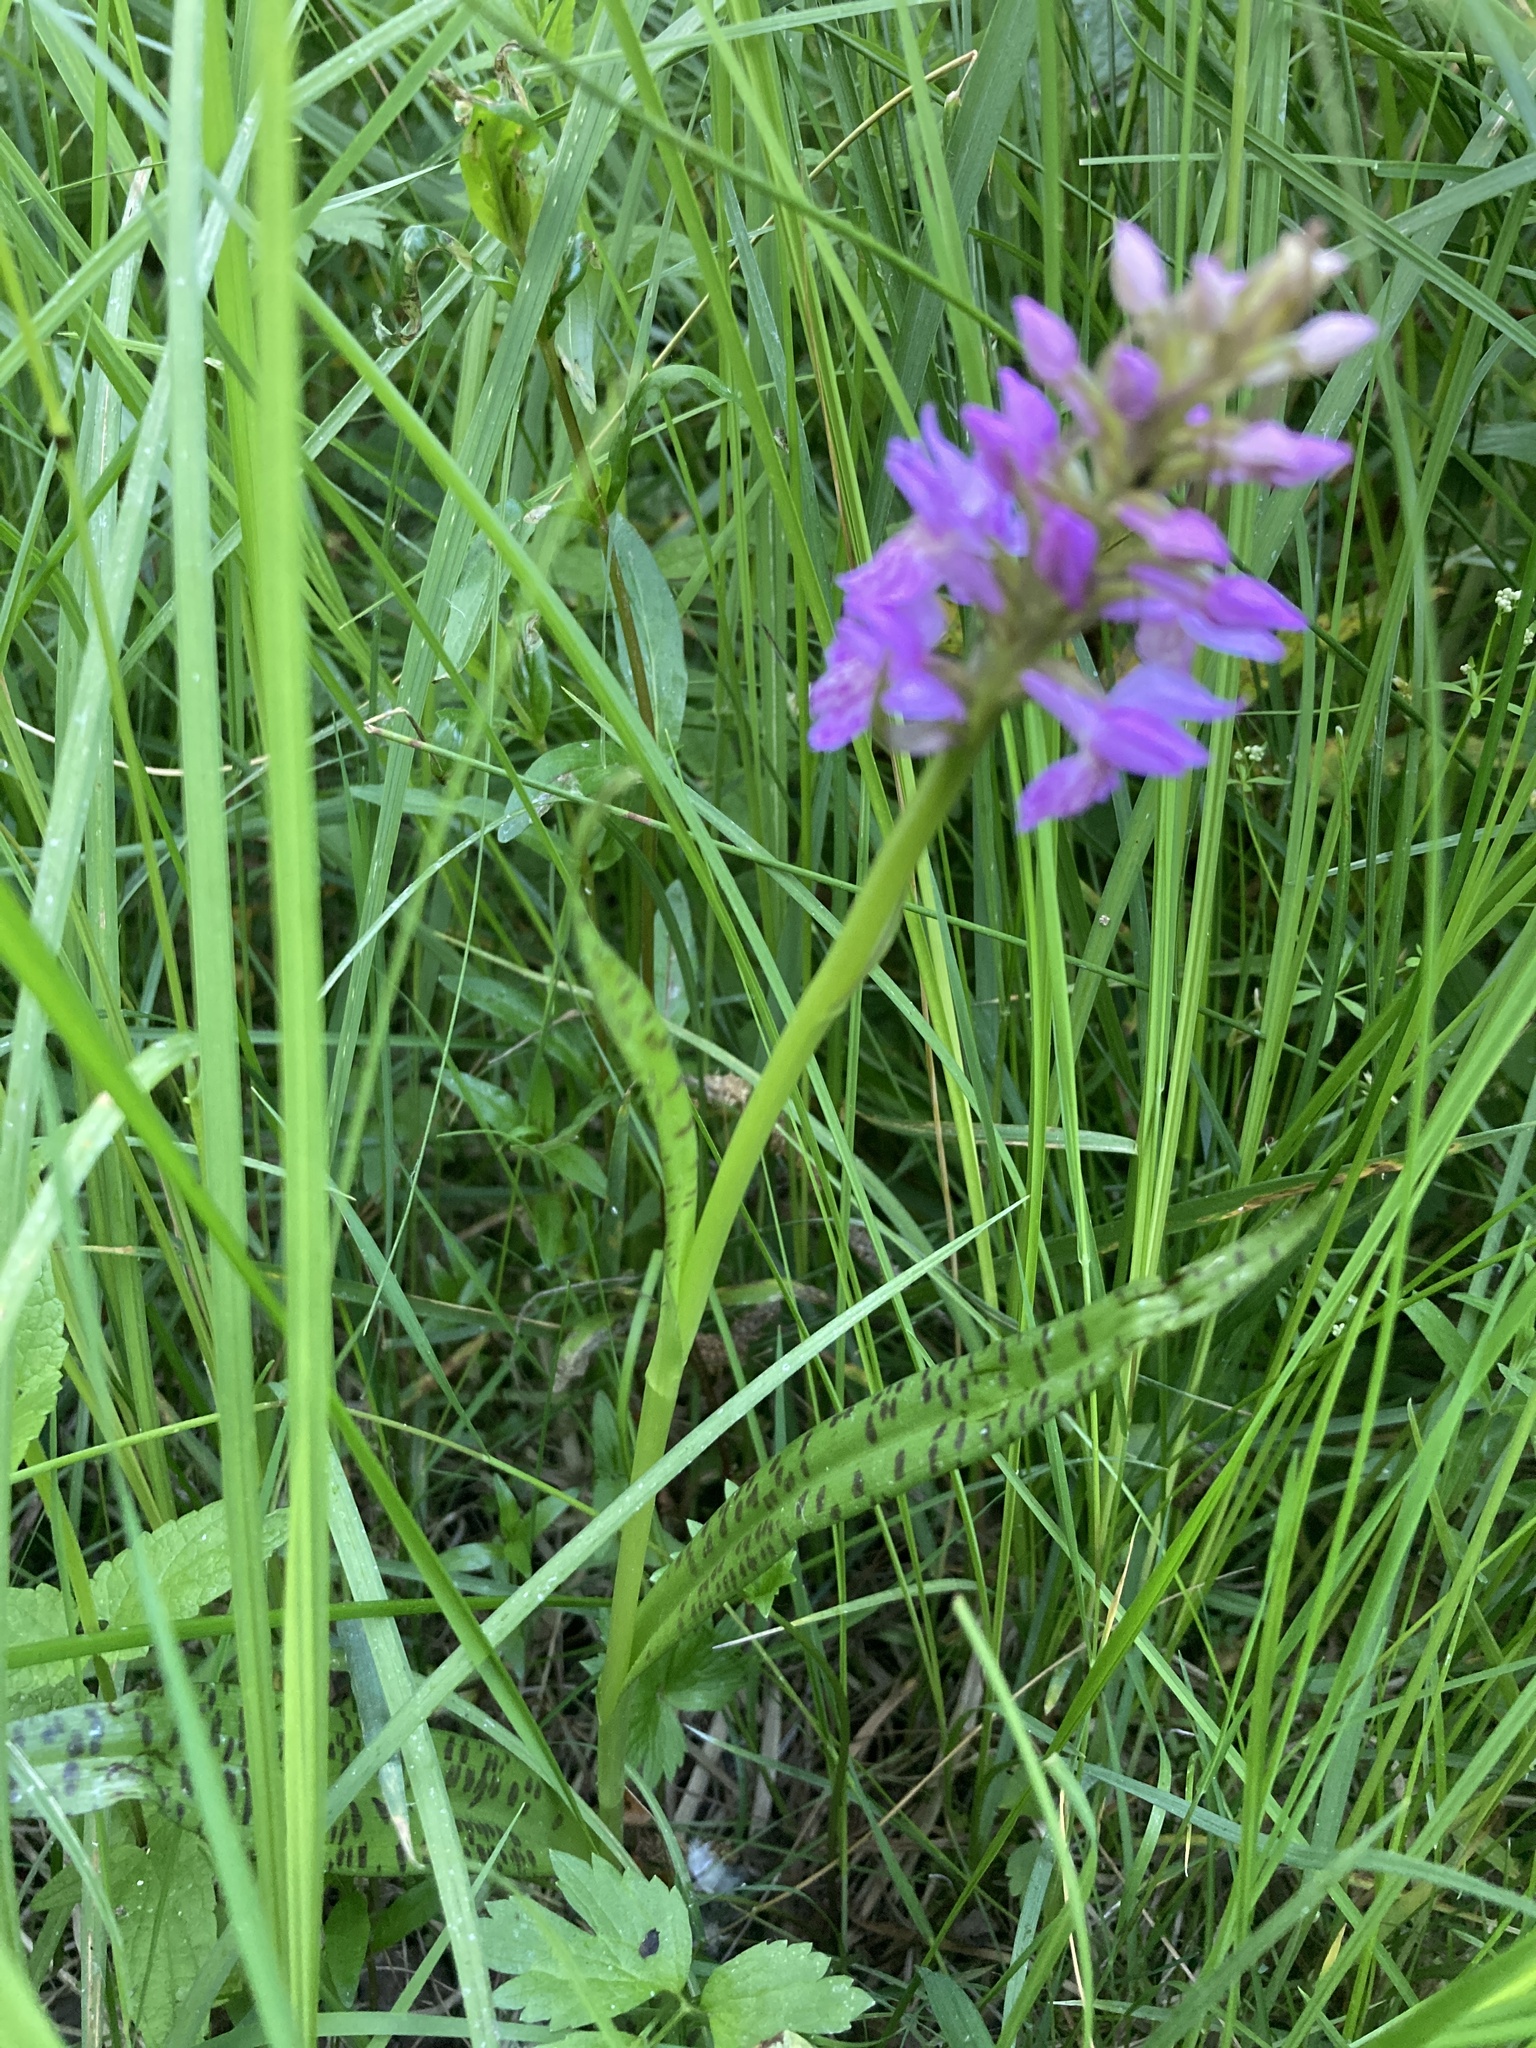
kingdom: Plantae
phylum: Tracheophyta
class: Liliopsida
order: Asparagales
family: Orchidaceae
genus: Dactylorhiza
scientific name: Dactylorhiza majalis
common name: Marsh orchid
